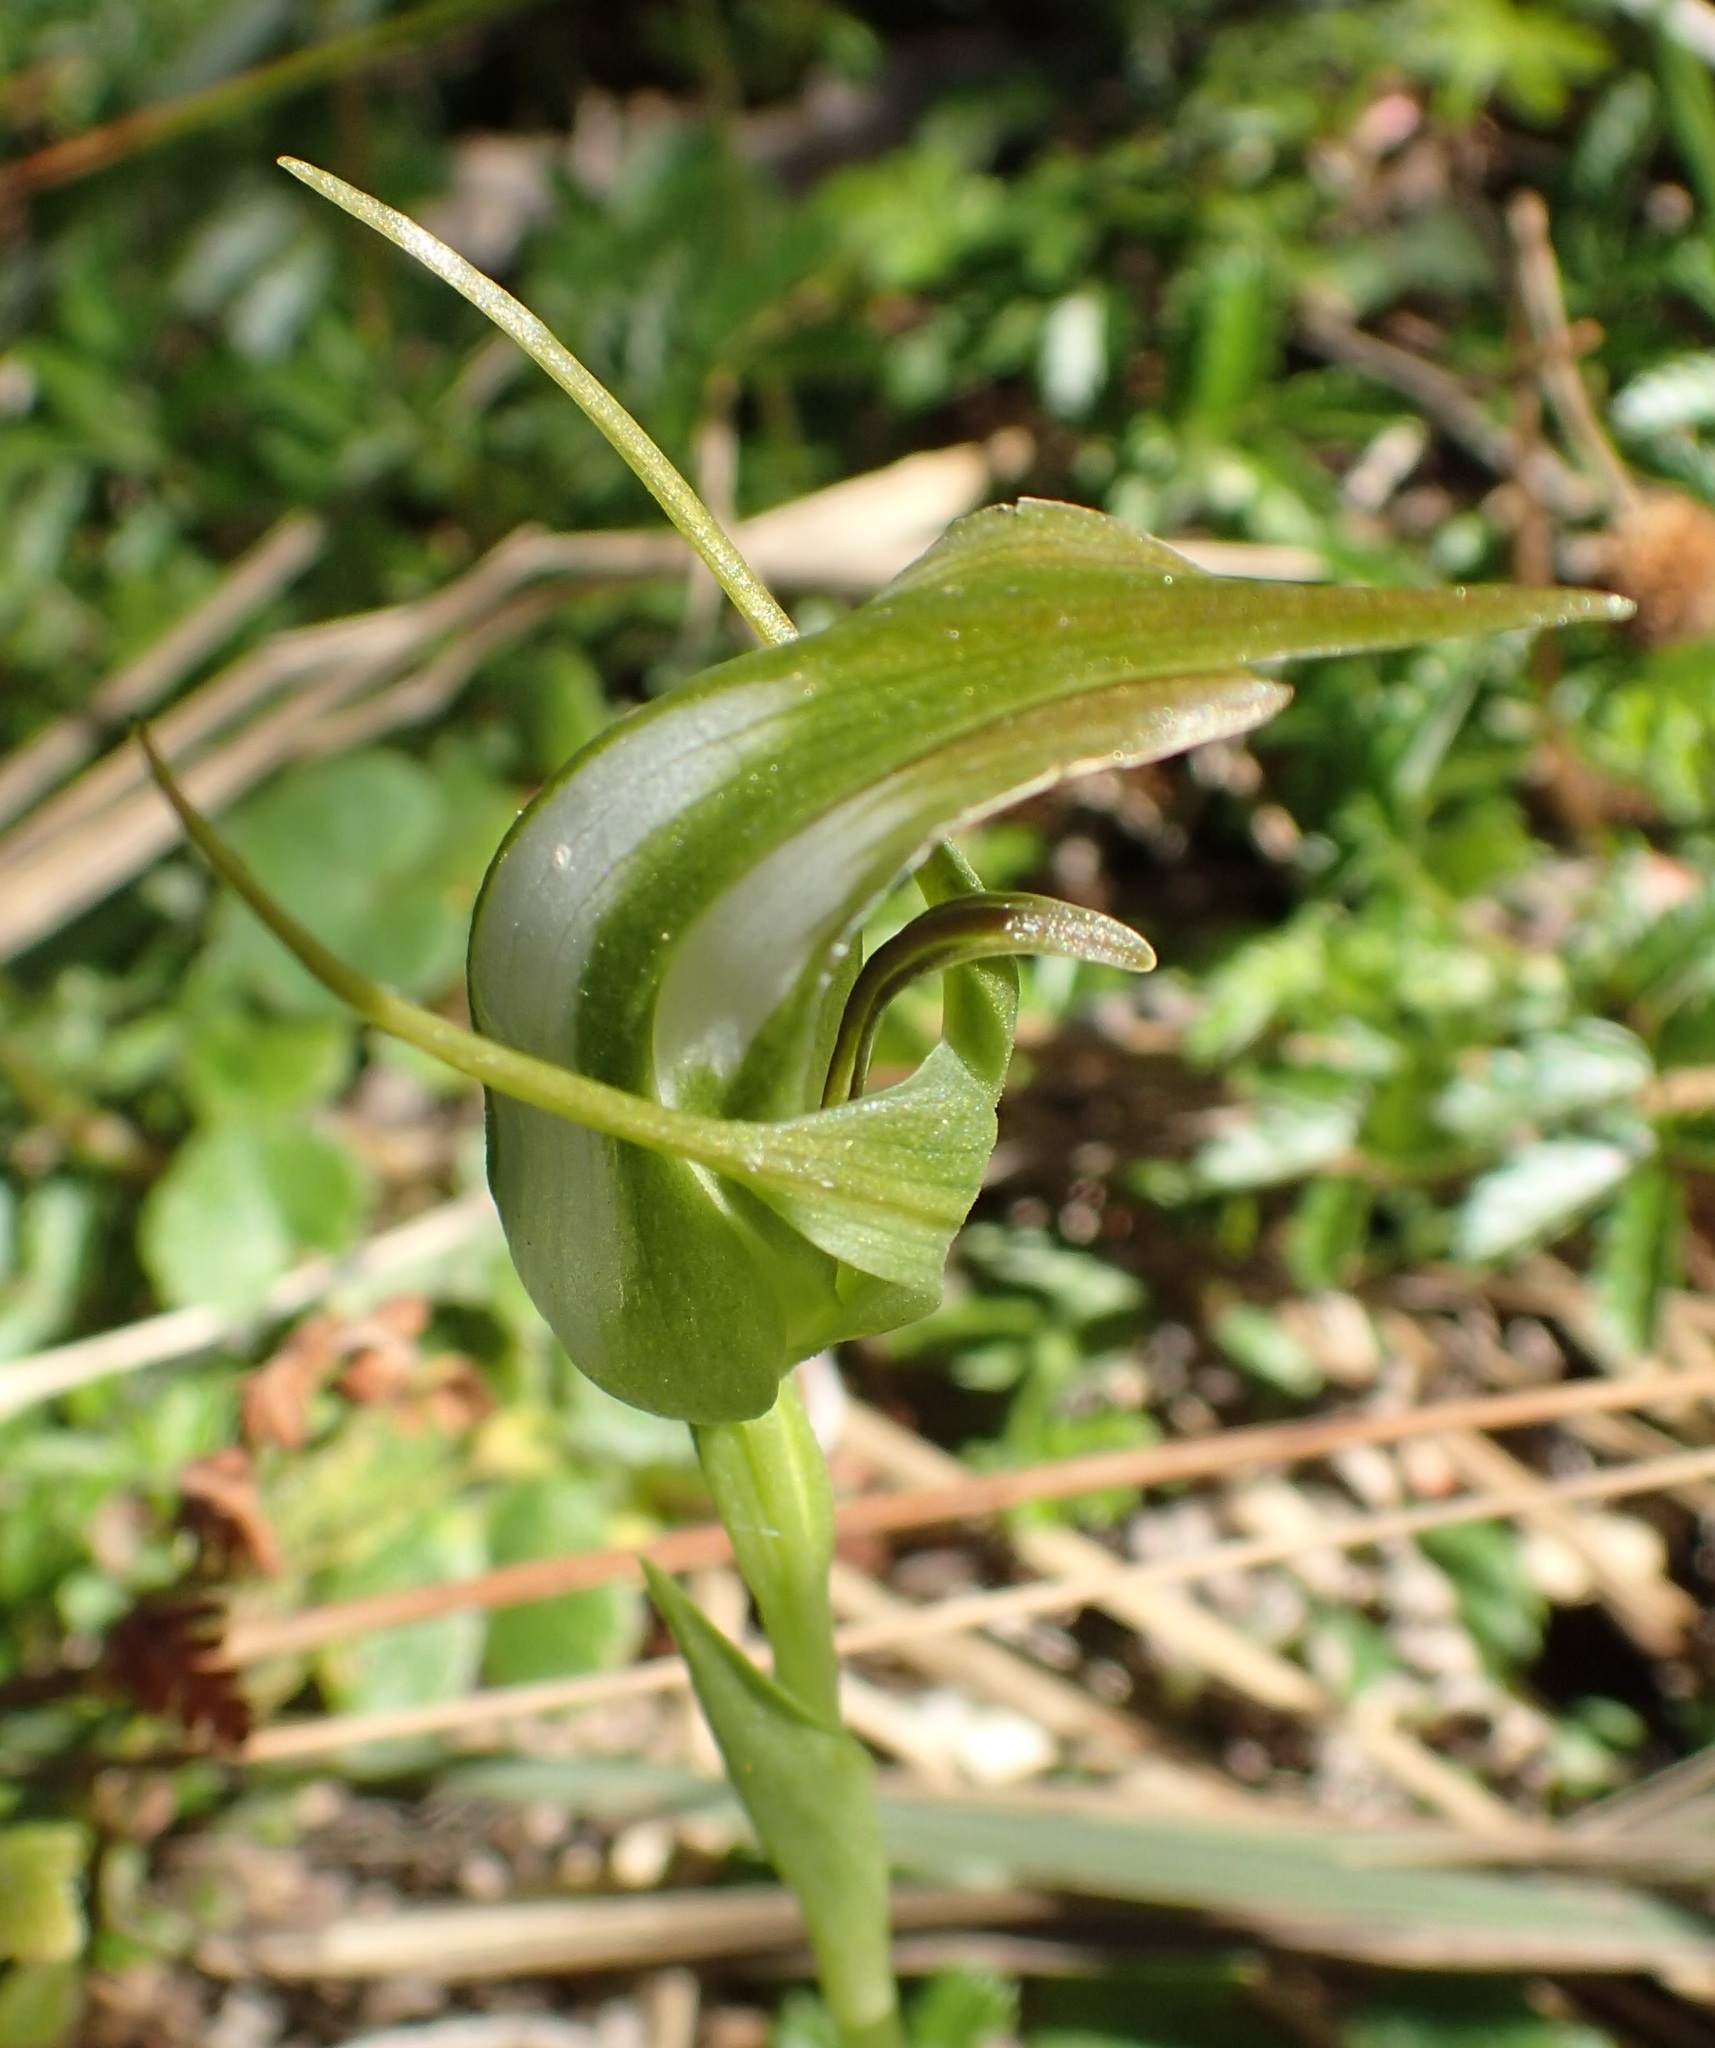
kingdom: Plantae
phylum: Tracheophyta
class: Liliopsida
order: Asparagales
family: Orchidaceae
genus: Pterostylis
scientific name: Pterostylis lustra
